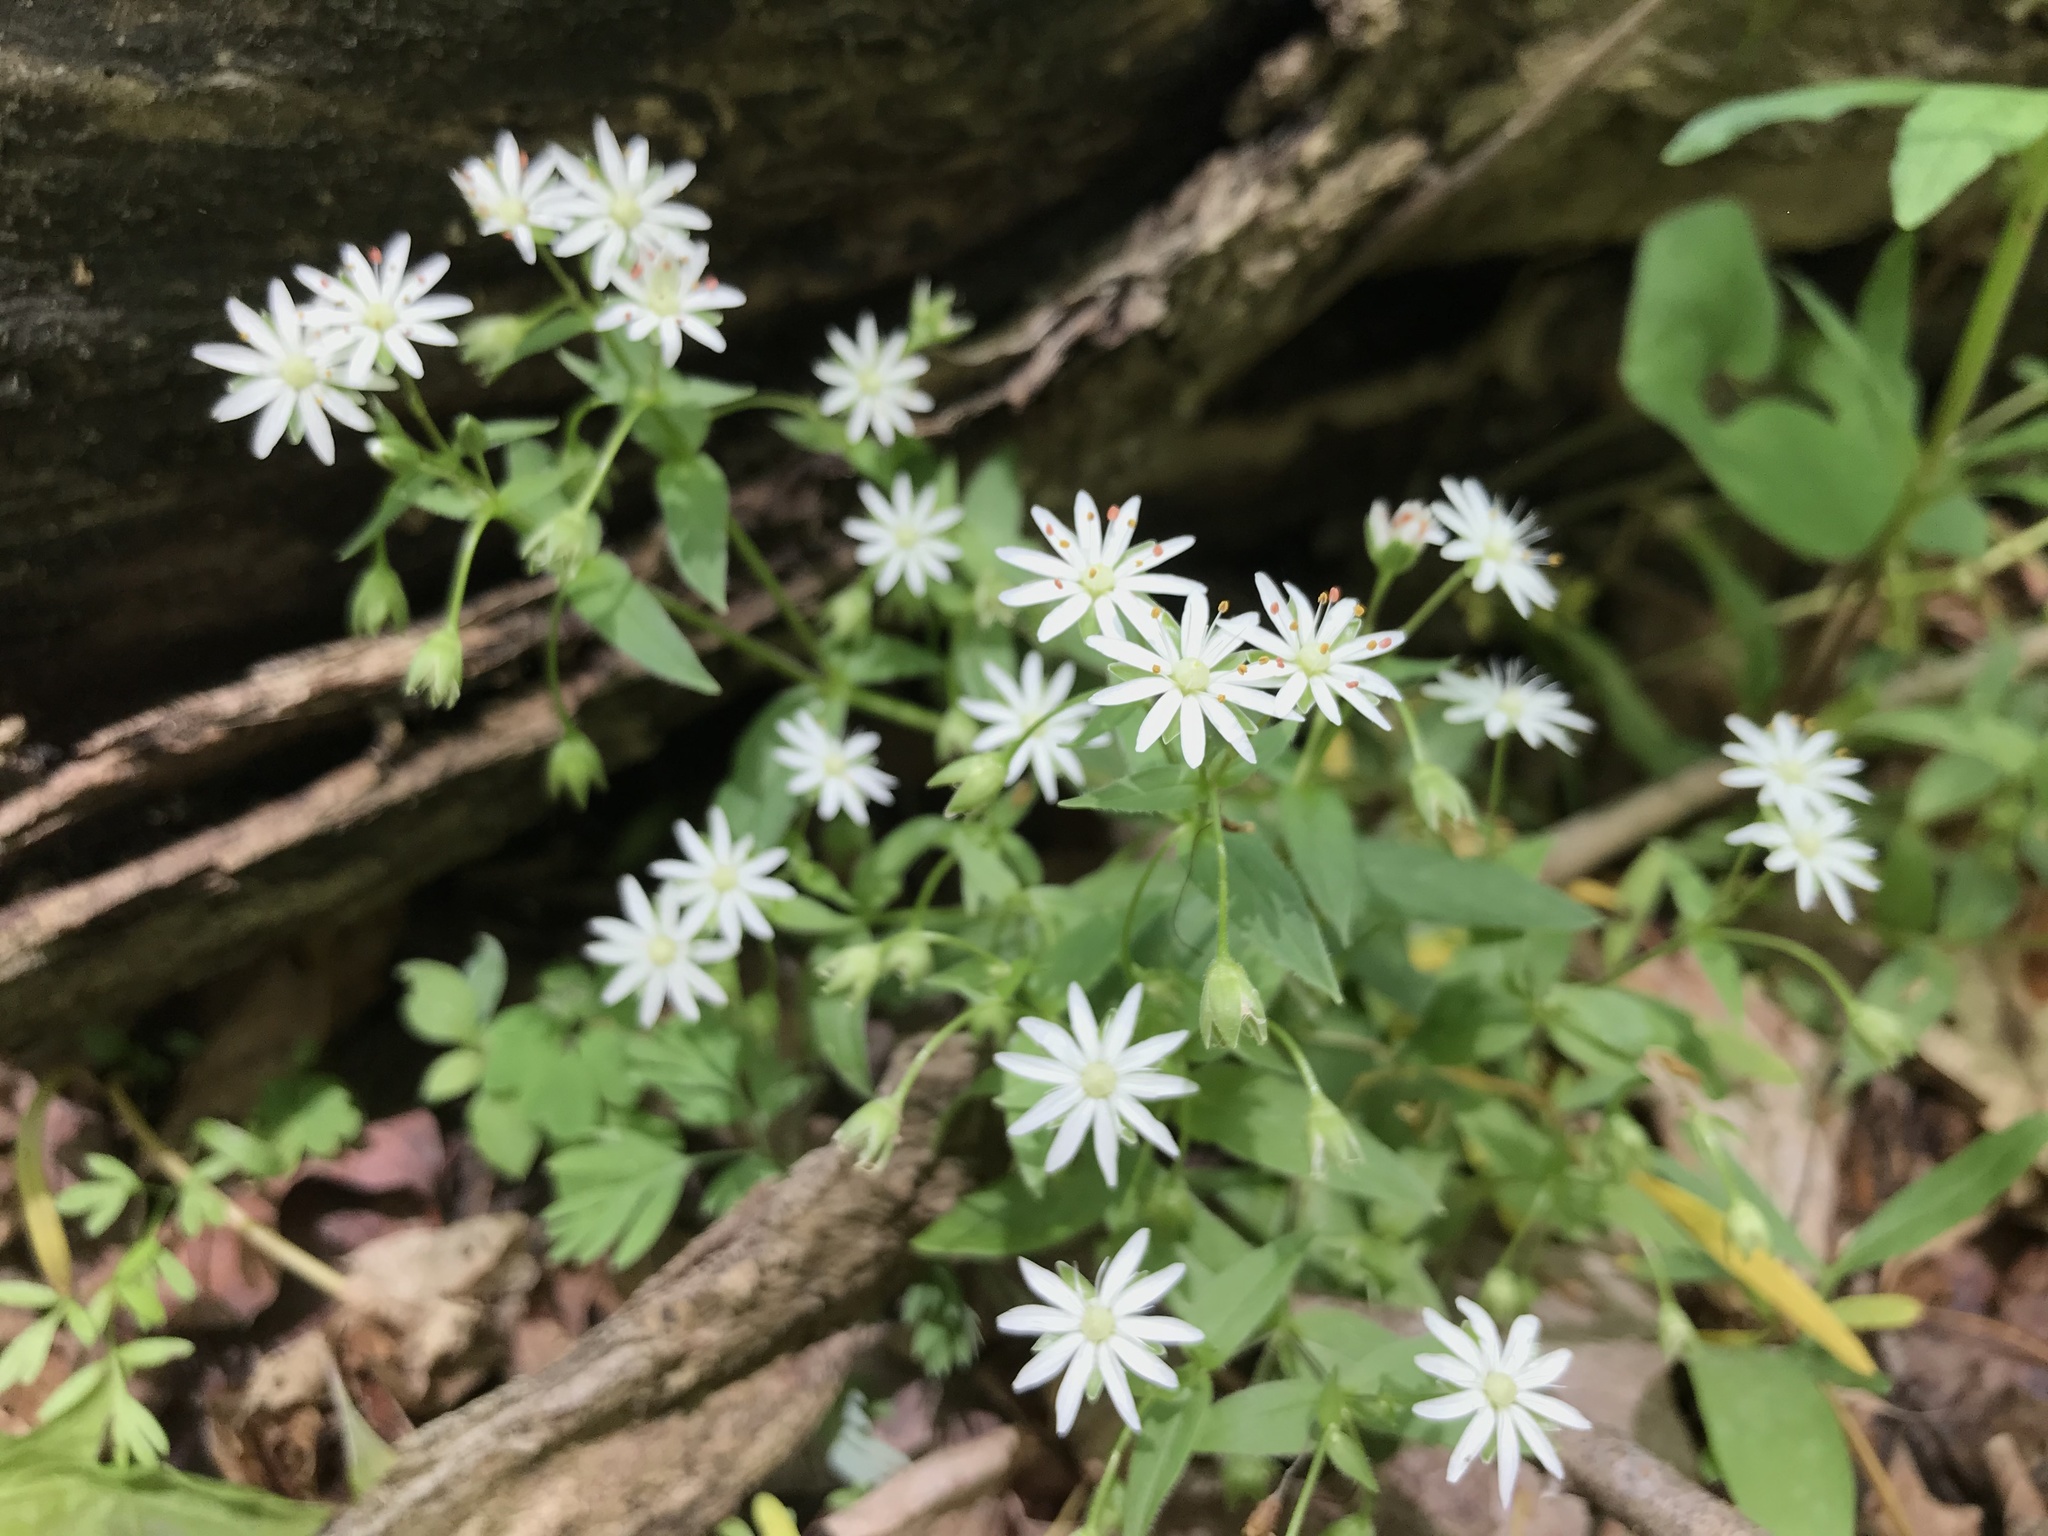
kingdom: Plantae
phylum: Tracheophyta
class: Magnoliopsida
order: Caryophyllales
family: Caryophyllaceae
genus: Stellaria
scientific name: Stellaria pubera
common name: Star chickweed
